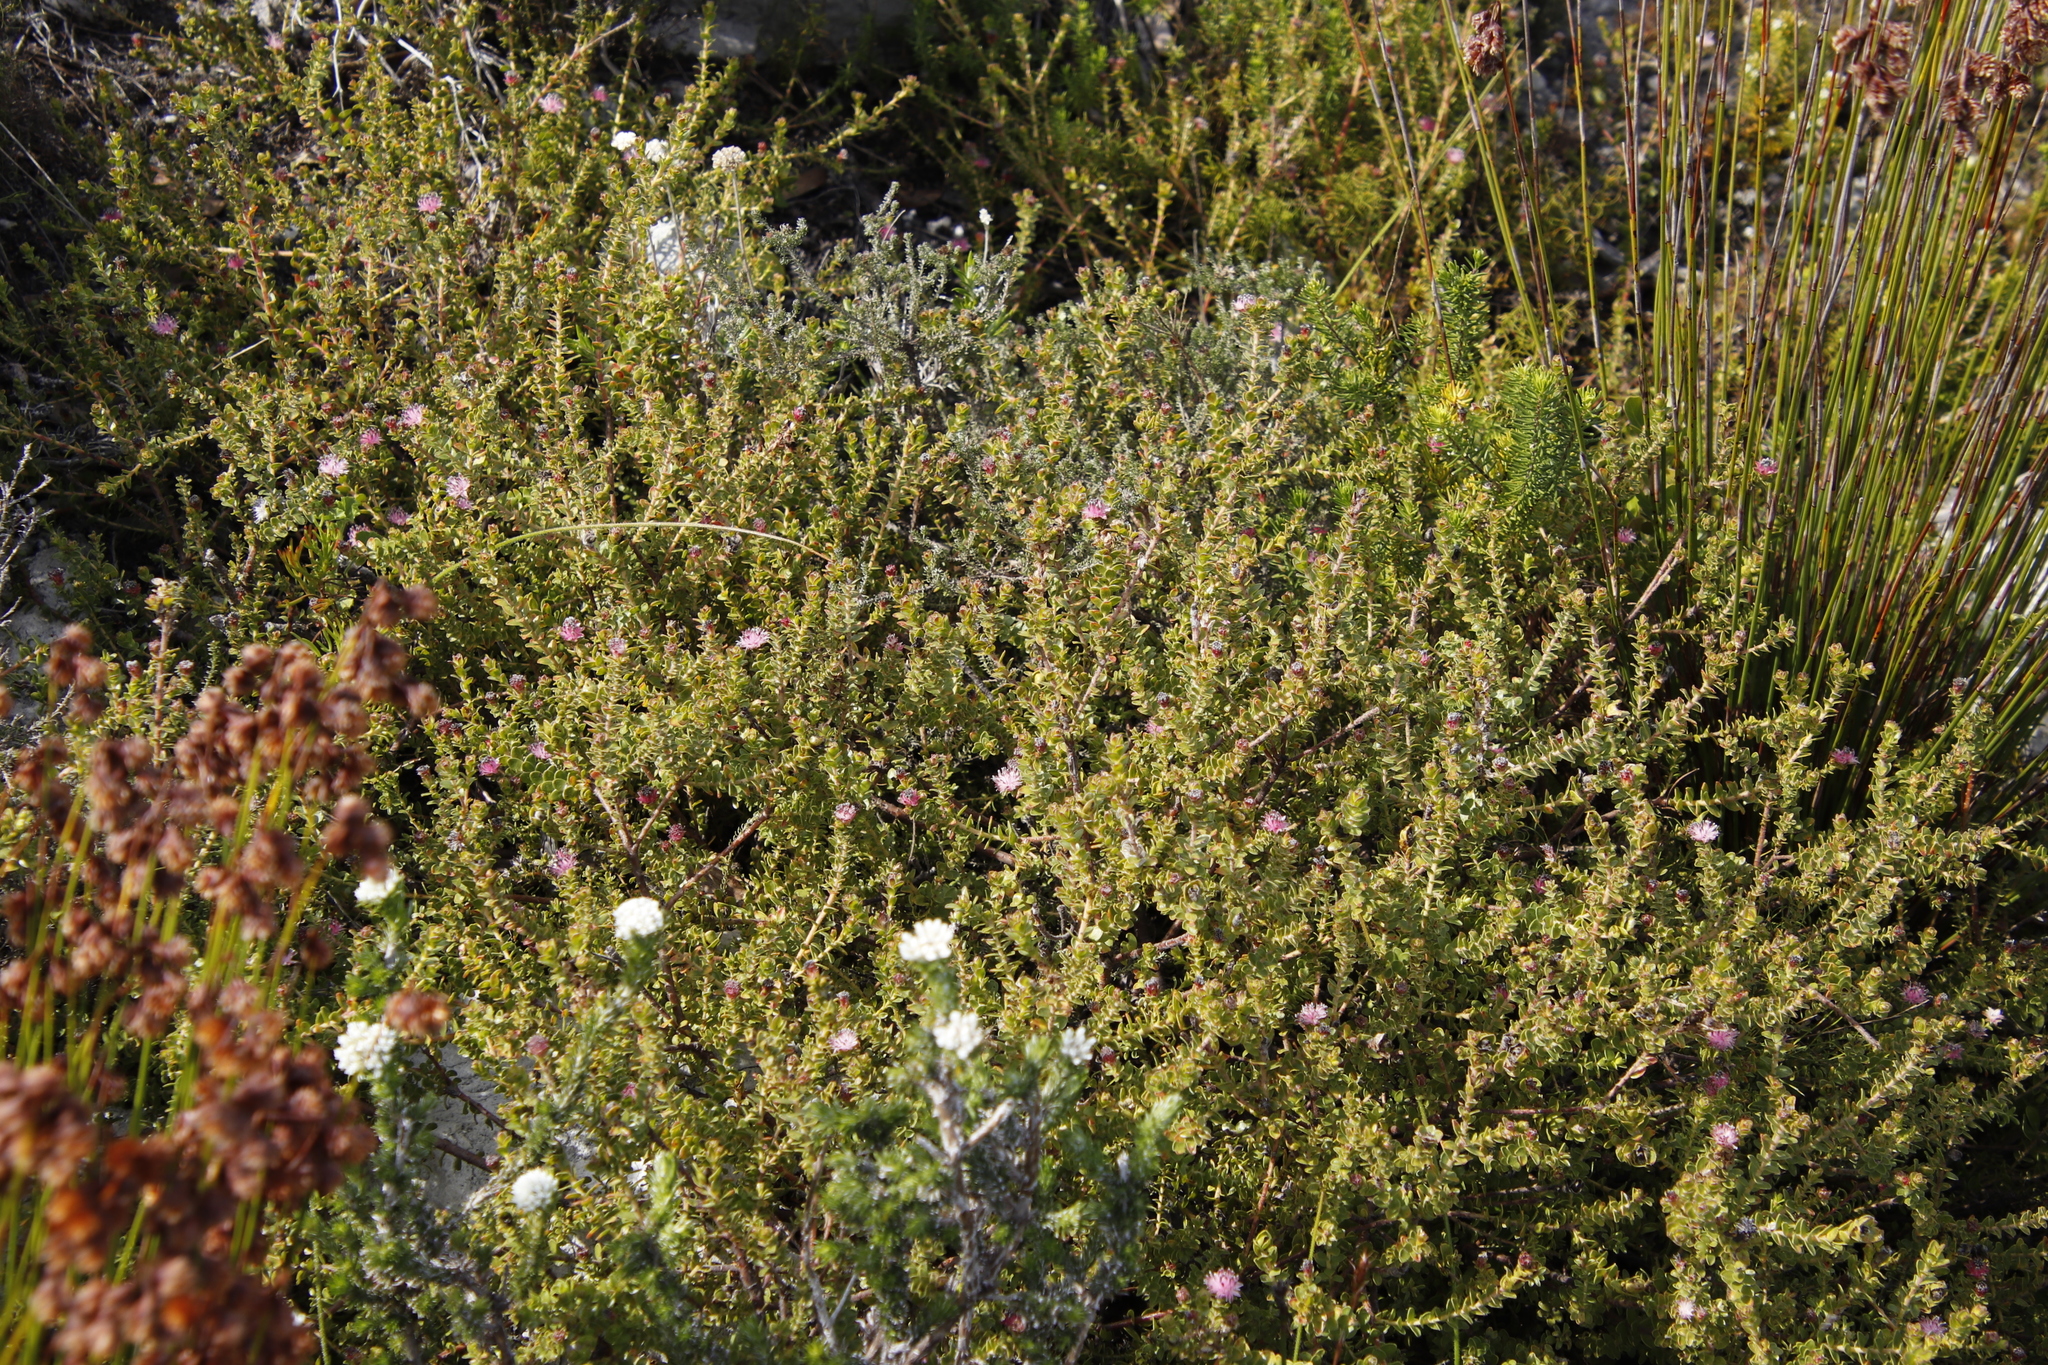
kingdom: Plantae
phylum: Tracheophyta
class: Magnoliopsida
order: Proteales
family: Proteaceae
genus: Diastella
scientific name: Diastella divaricata
